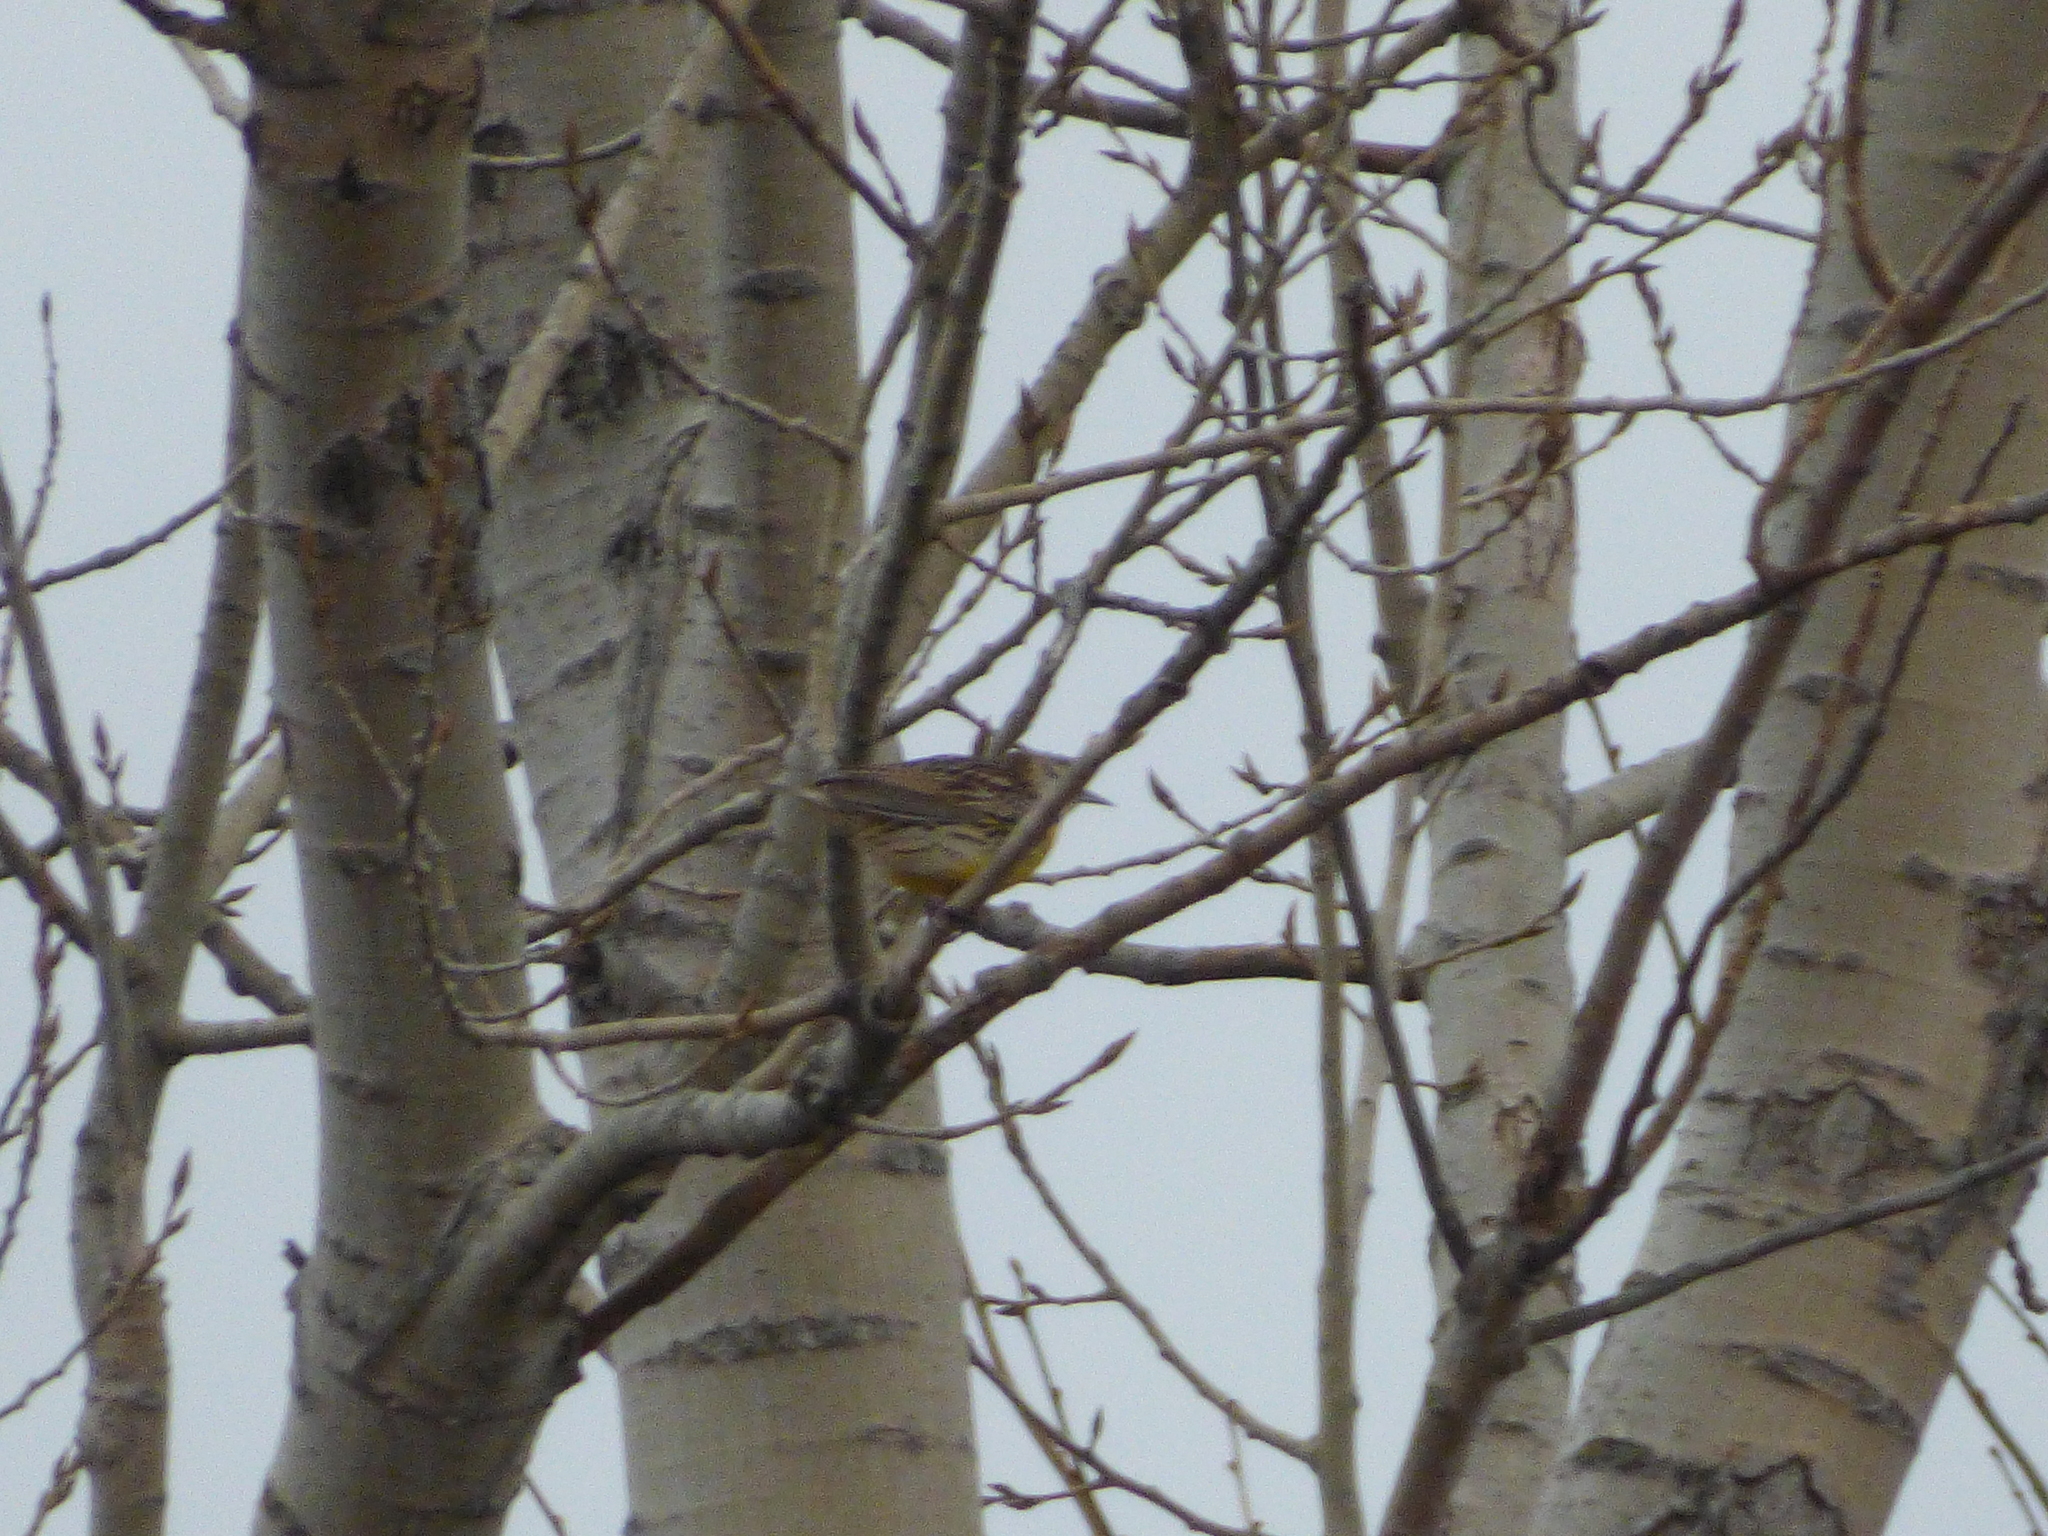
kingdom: Animalia
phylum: Chordata
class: Aves
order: Passeriformes
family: Icteridae
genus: Sturnella
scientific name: Sturnella magna
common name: Eastern meadowlark
